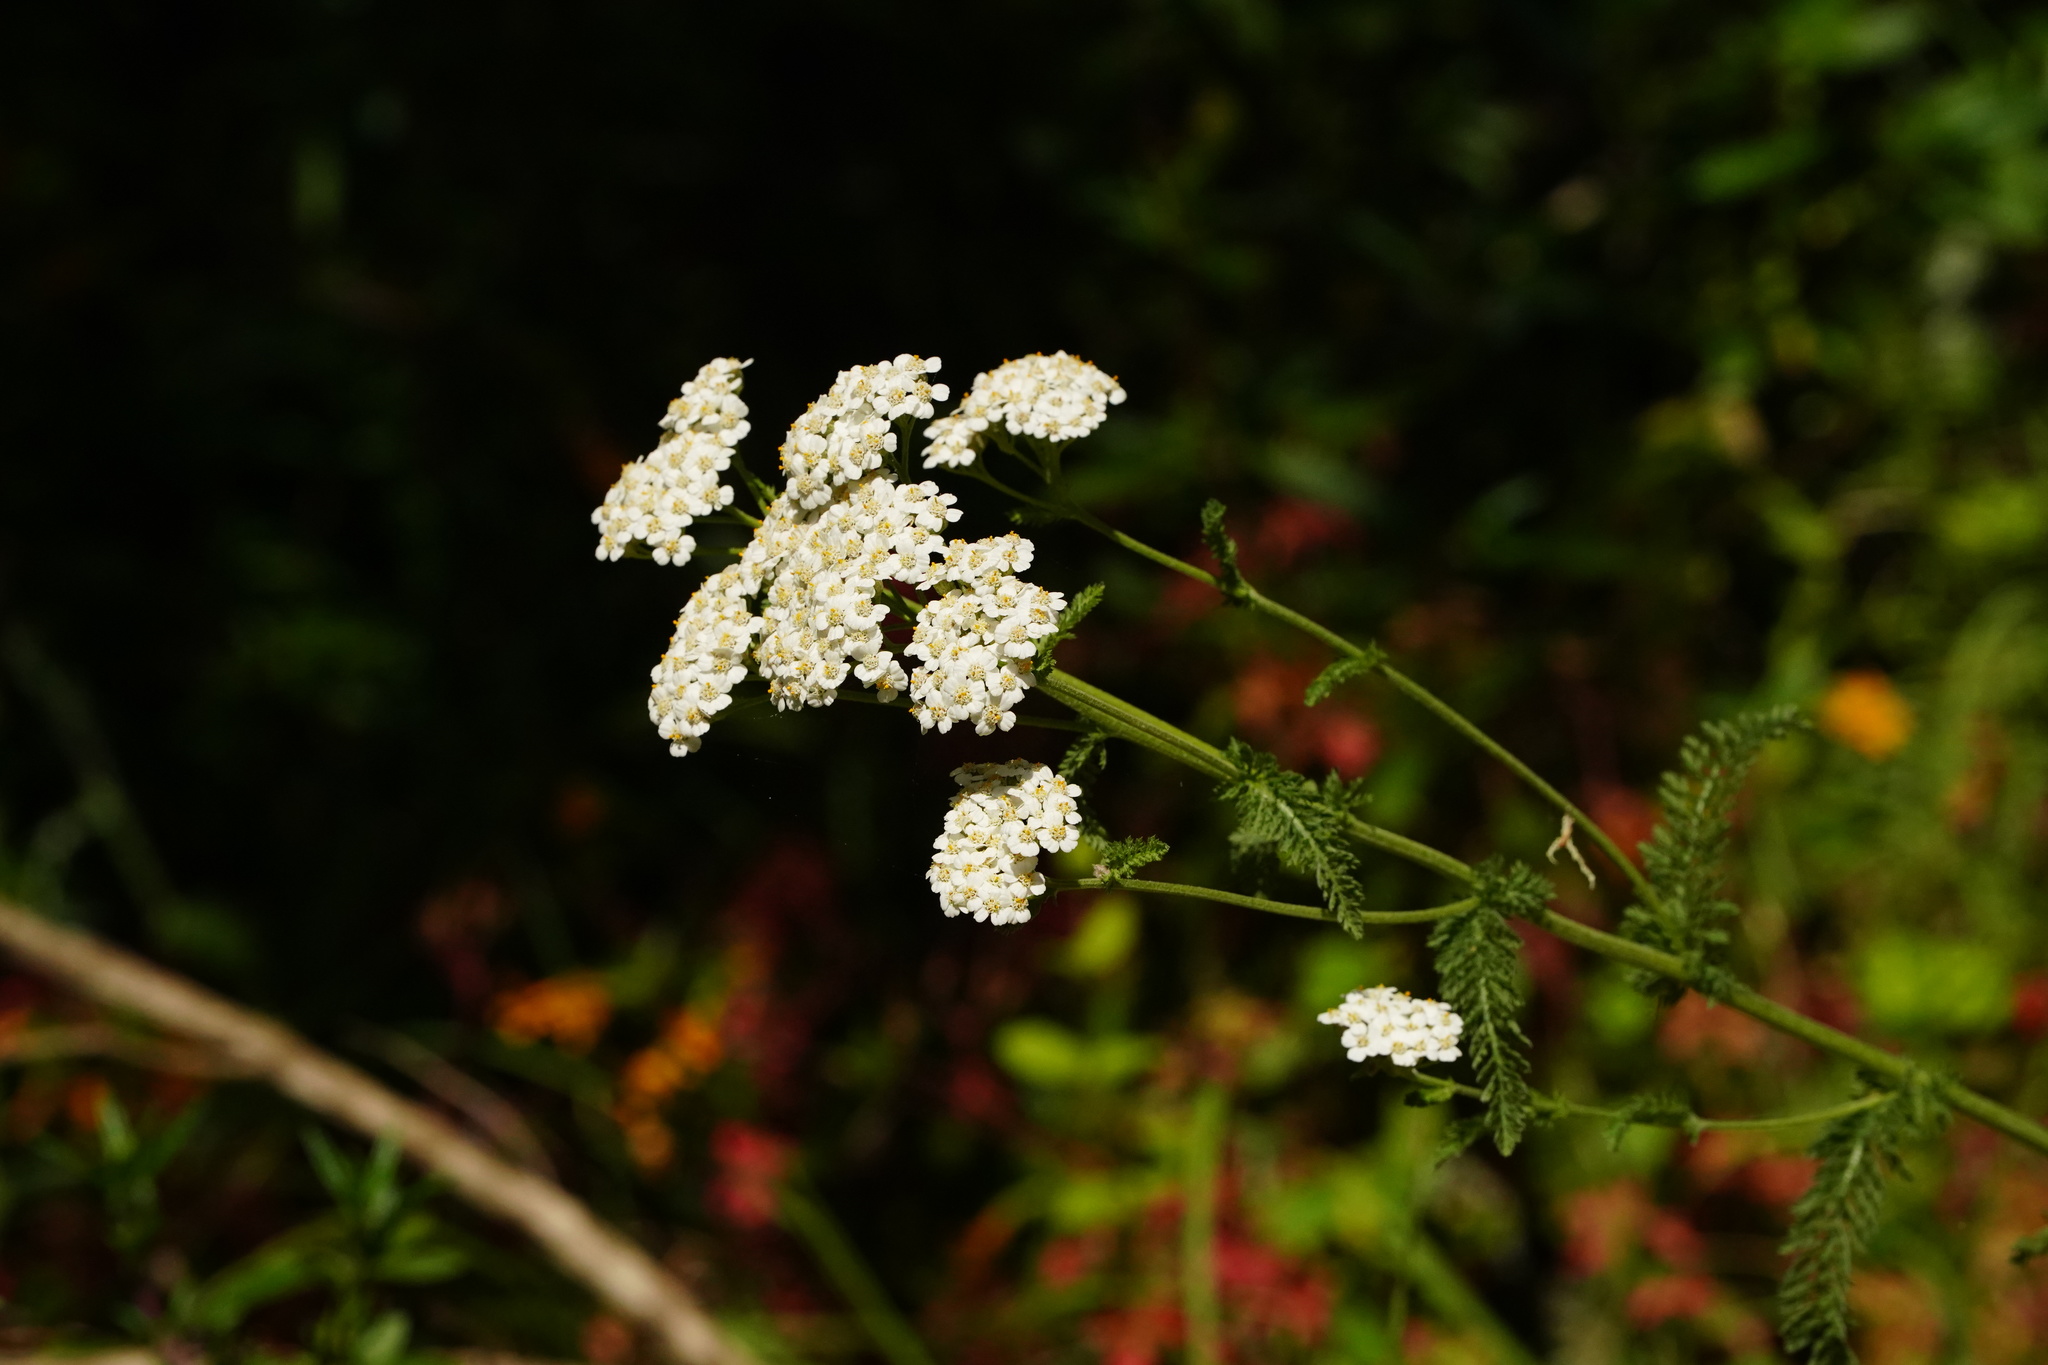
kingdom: Plantae
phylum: Tracheophyta
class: Magnoliopsida
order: Asterales
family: Asteraceae
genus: Achillea
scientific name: Achillea millefolium
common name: Yarrow
